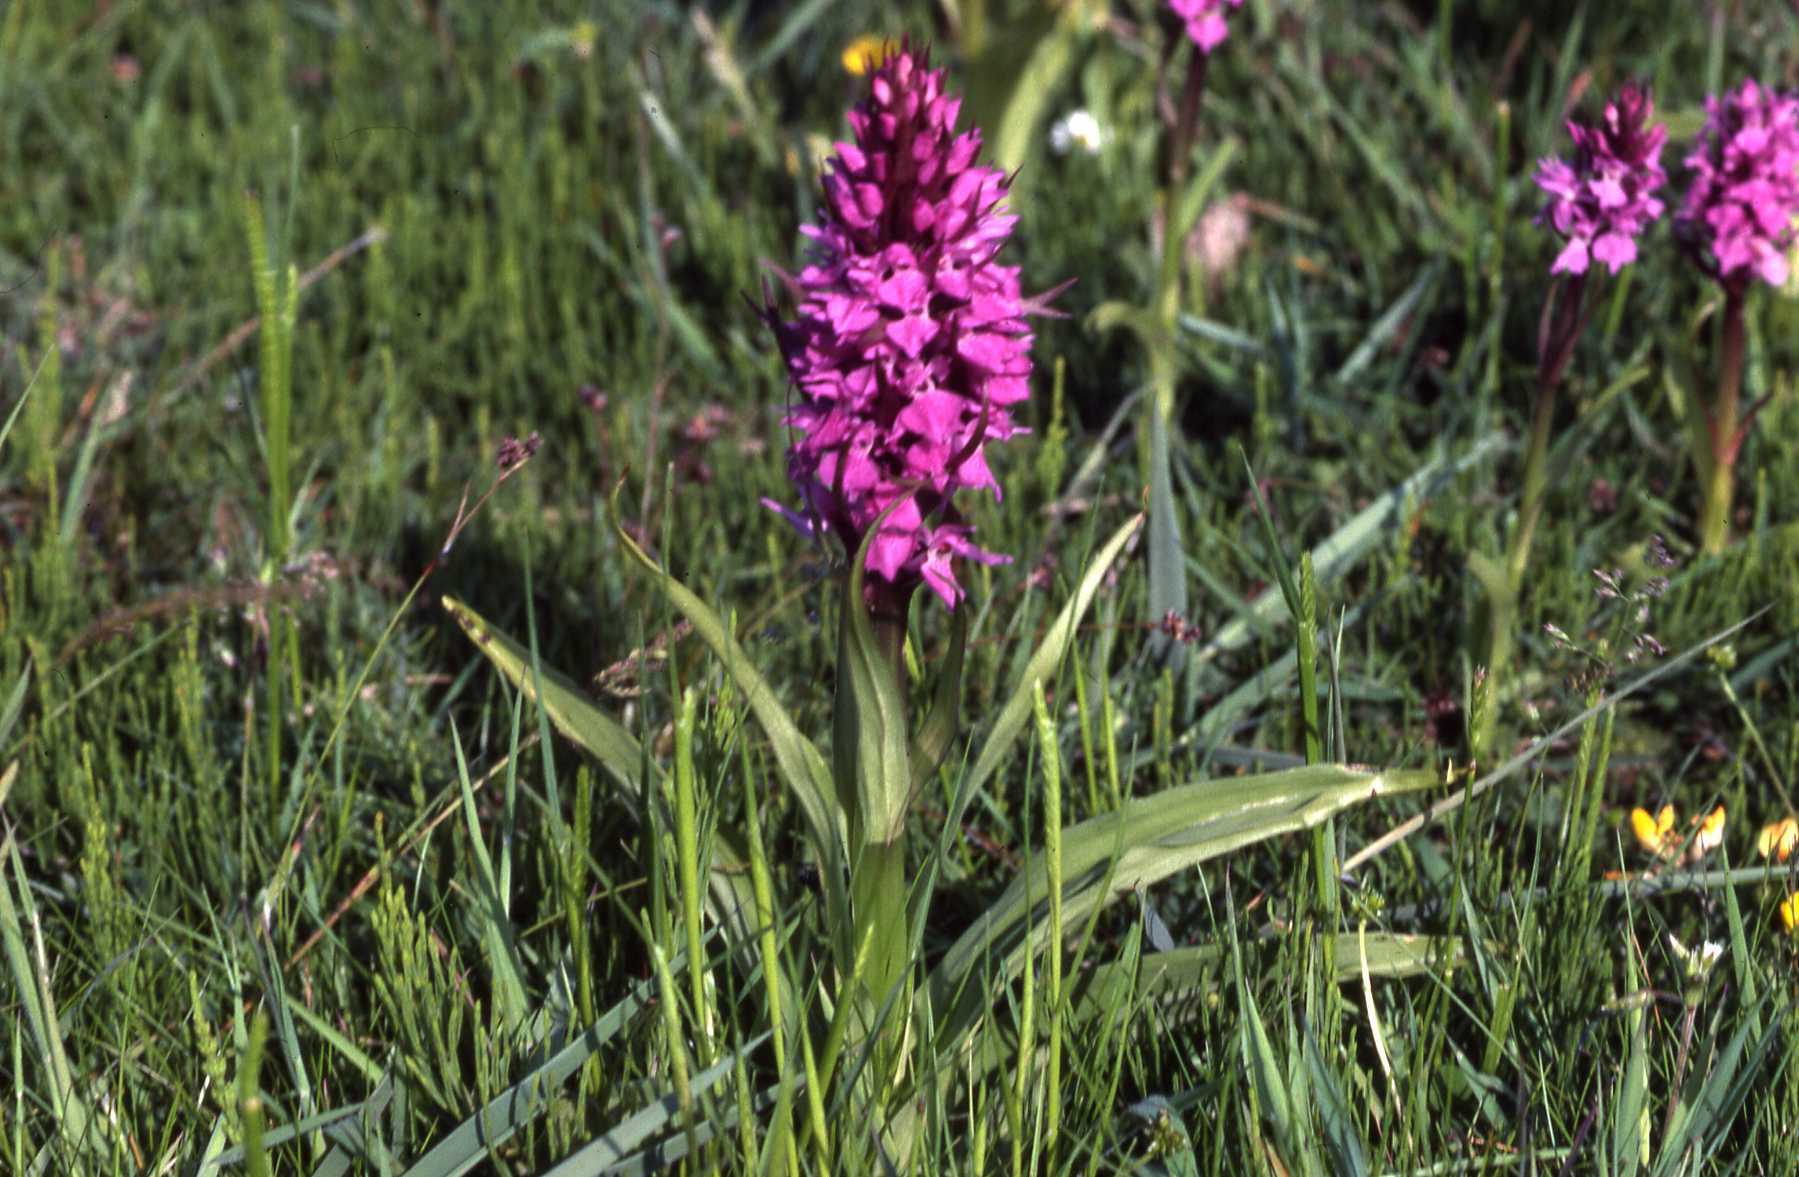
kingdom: Plantae
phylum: Tracheophyta
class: Liliopsida
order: Asparagales
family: Orchidaceae
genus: Dactylorhiza
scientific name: Dactylorhiza majalis
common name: Marsh orchid
